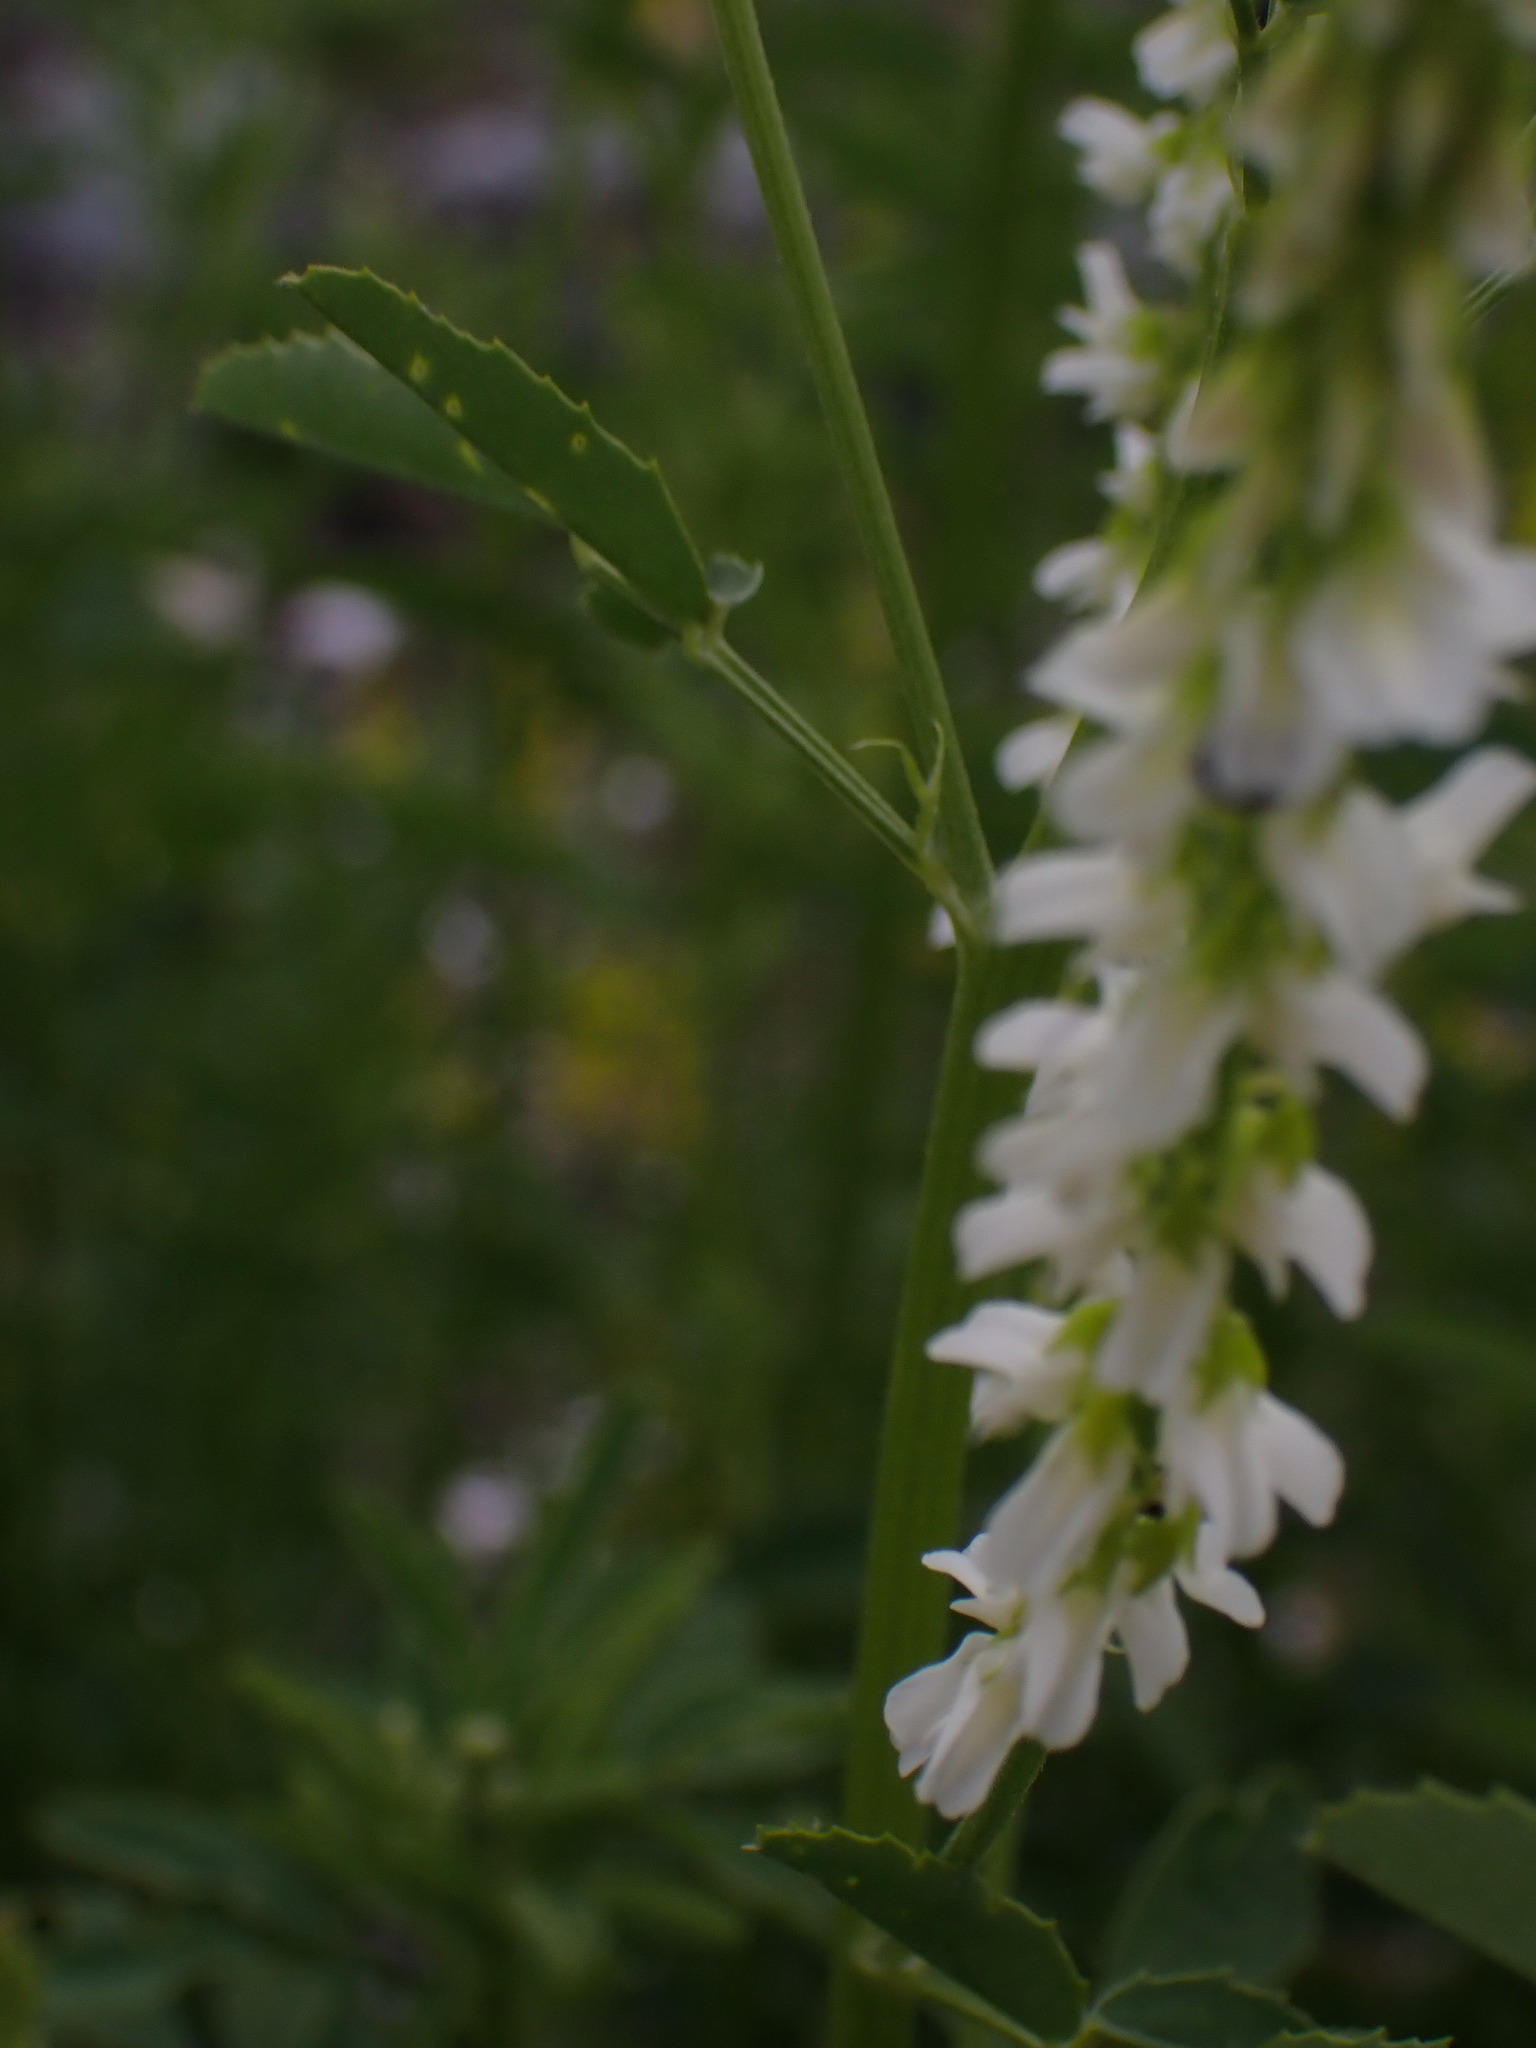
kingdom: Plantae
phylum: Tracheophyta
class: Magnoliopsida
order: Fabales
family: Fabaceae
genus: Melilotus
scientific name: Melilotus albus
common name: White melilot
